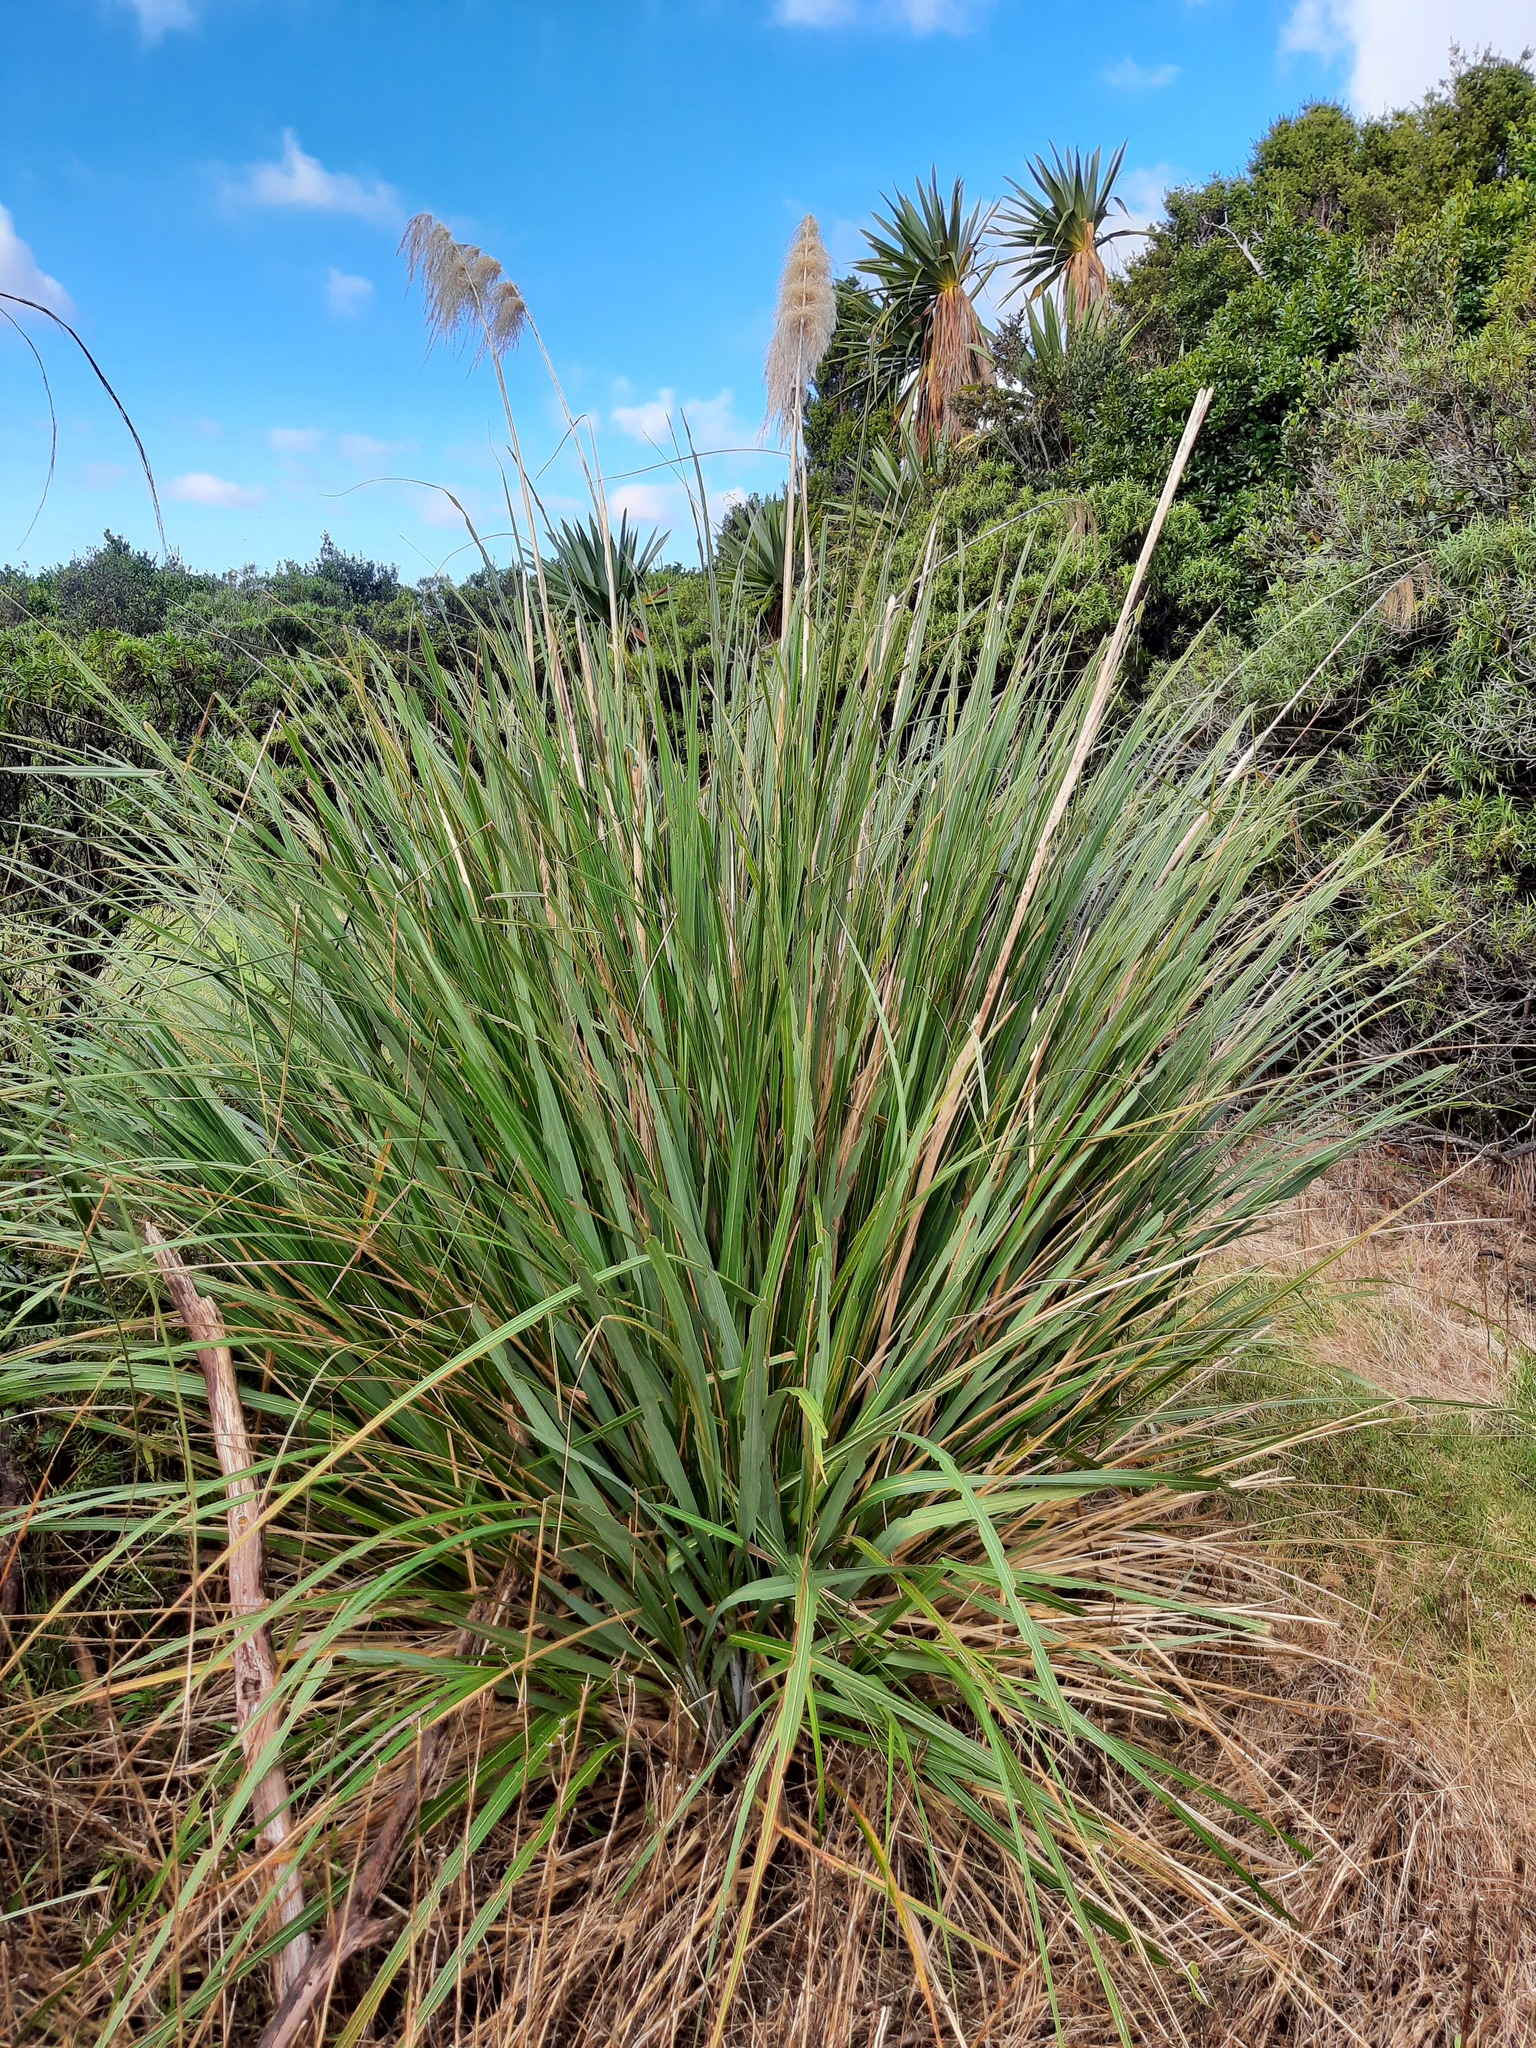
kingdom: Plantae
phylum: Tracheophyta
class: Liliopsida
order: Poales
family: Poaceae
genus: Austroderia
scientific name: Austroderia fulvida
